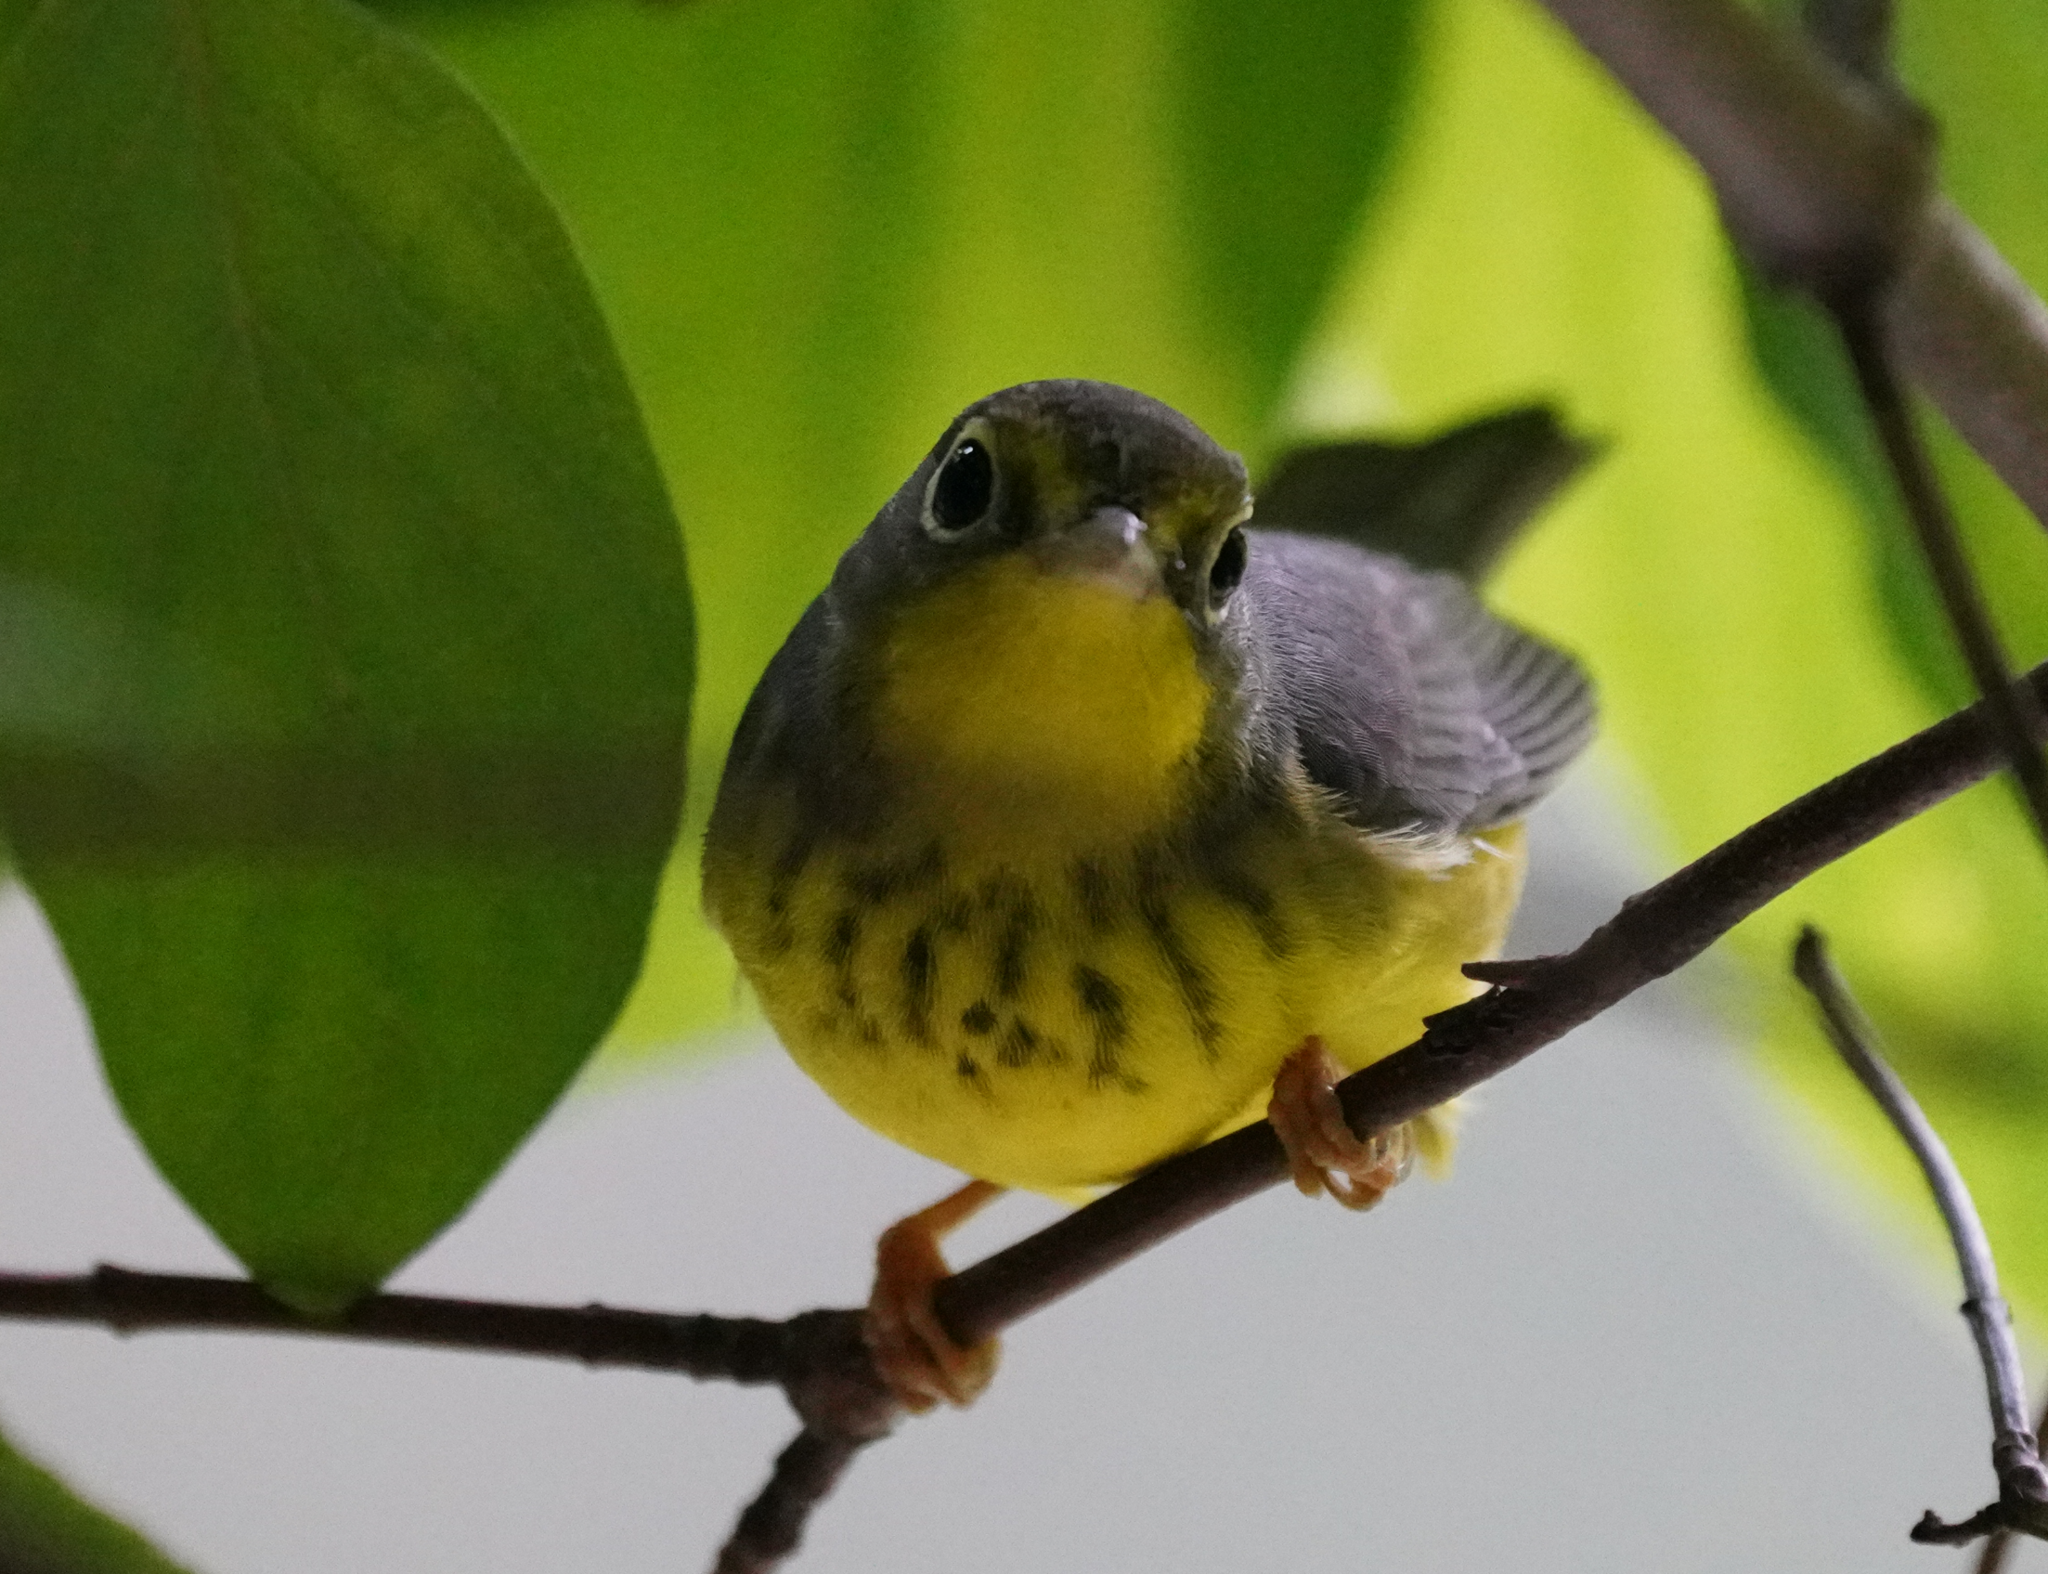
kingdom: Animalia
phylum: Chordata
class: Aves
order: Passeriformes
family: Parulidae
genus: Cardellina
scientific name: Cardellina canadensis
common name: Canada warbler
